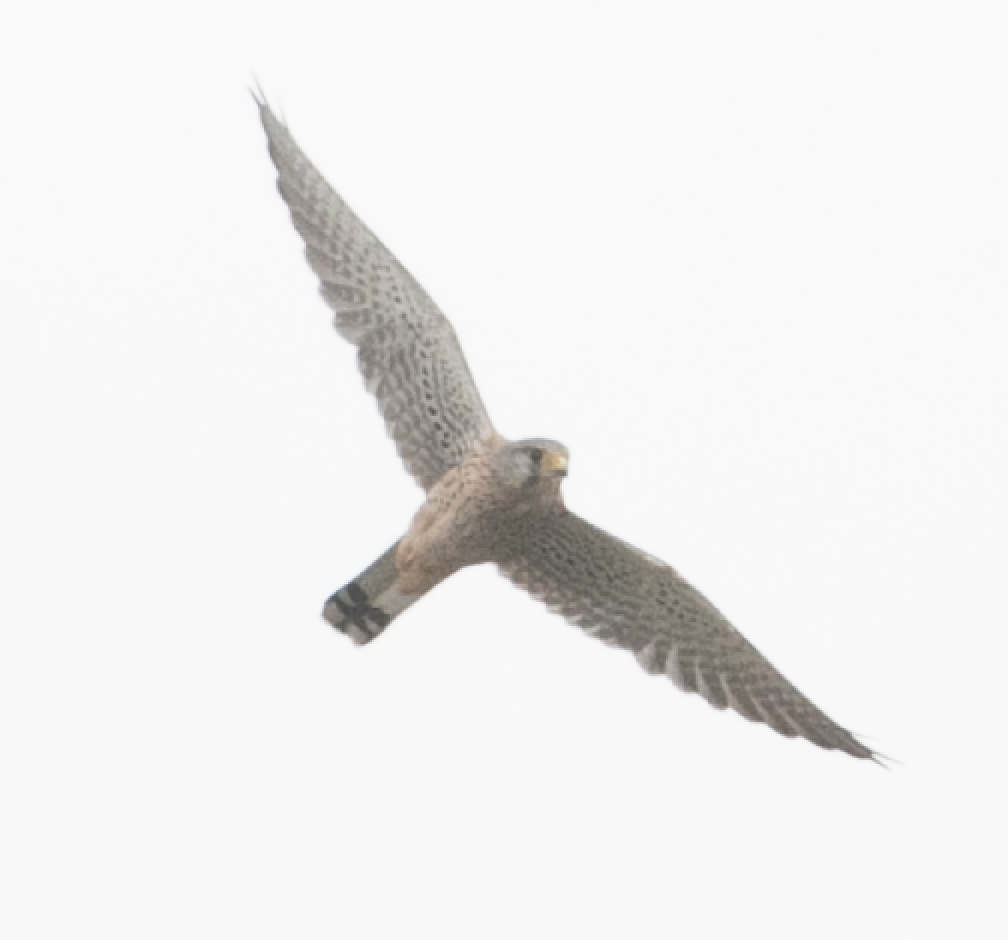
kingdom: Animalia
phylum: Chordata
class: Aves
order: Falconiformes
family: Falconidae
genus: Falco
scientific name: Falco tinnunculus
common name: Common kestrel
